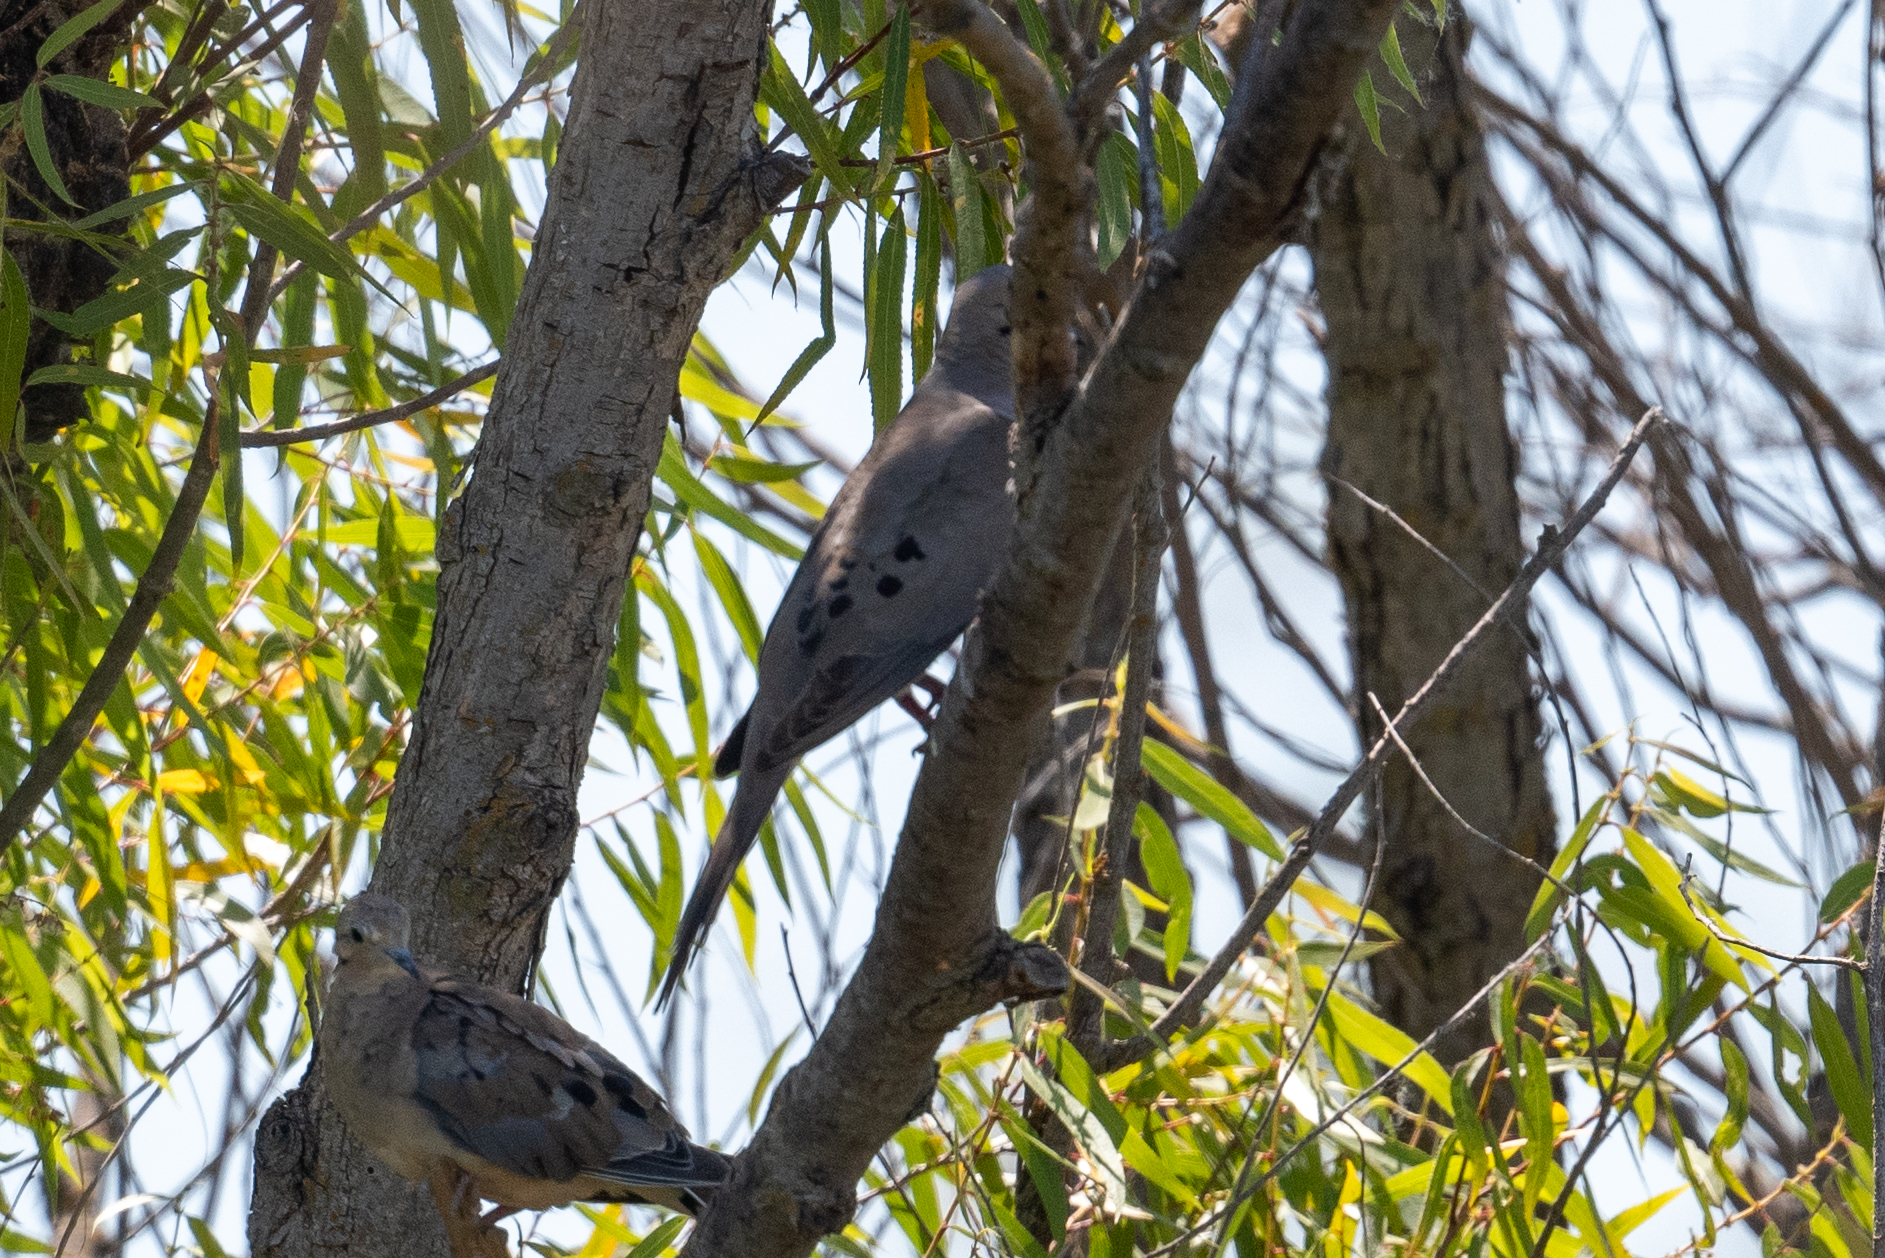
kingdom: Animalia
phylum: Chordata
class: Aves
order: Columbiformes
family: Columbidae
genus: Zenaida
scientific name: Zenaida macroura
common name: Mourning dove
